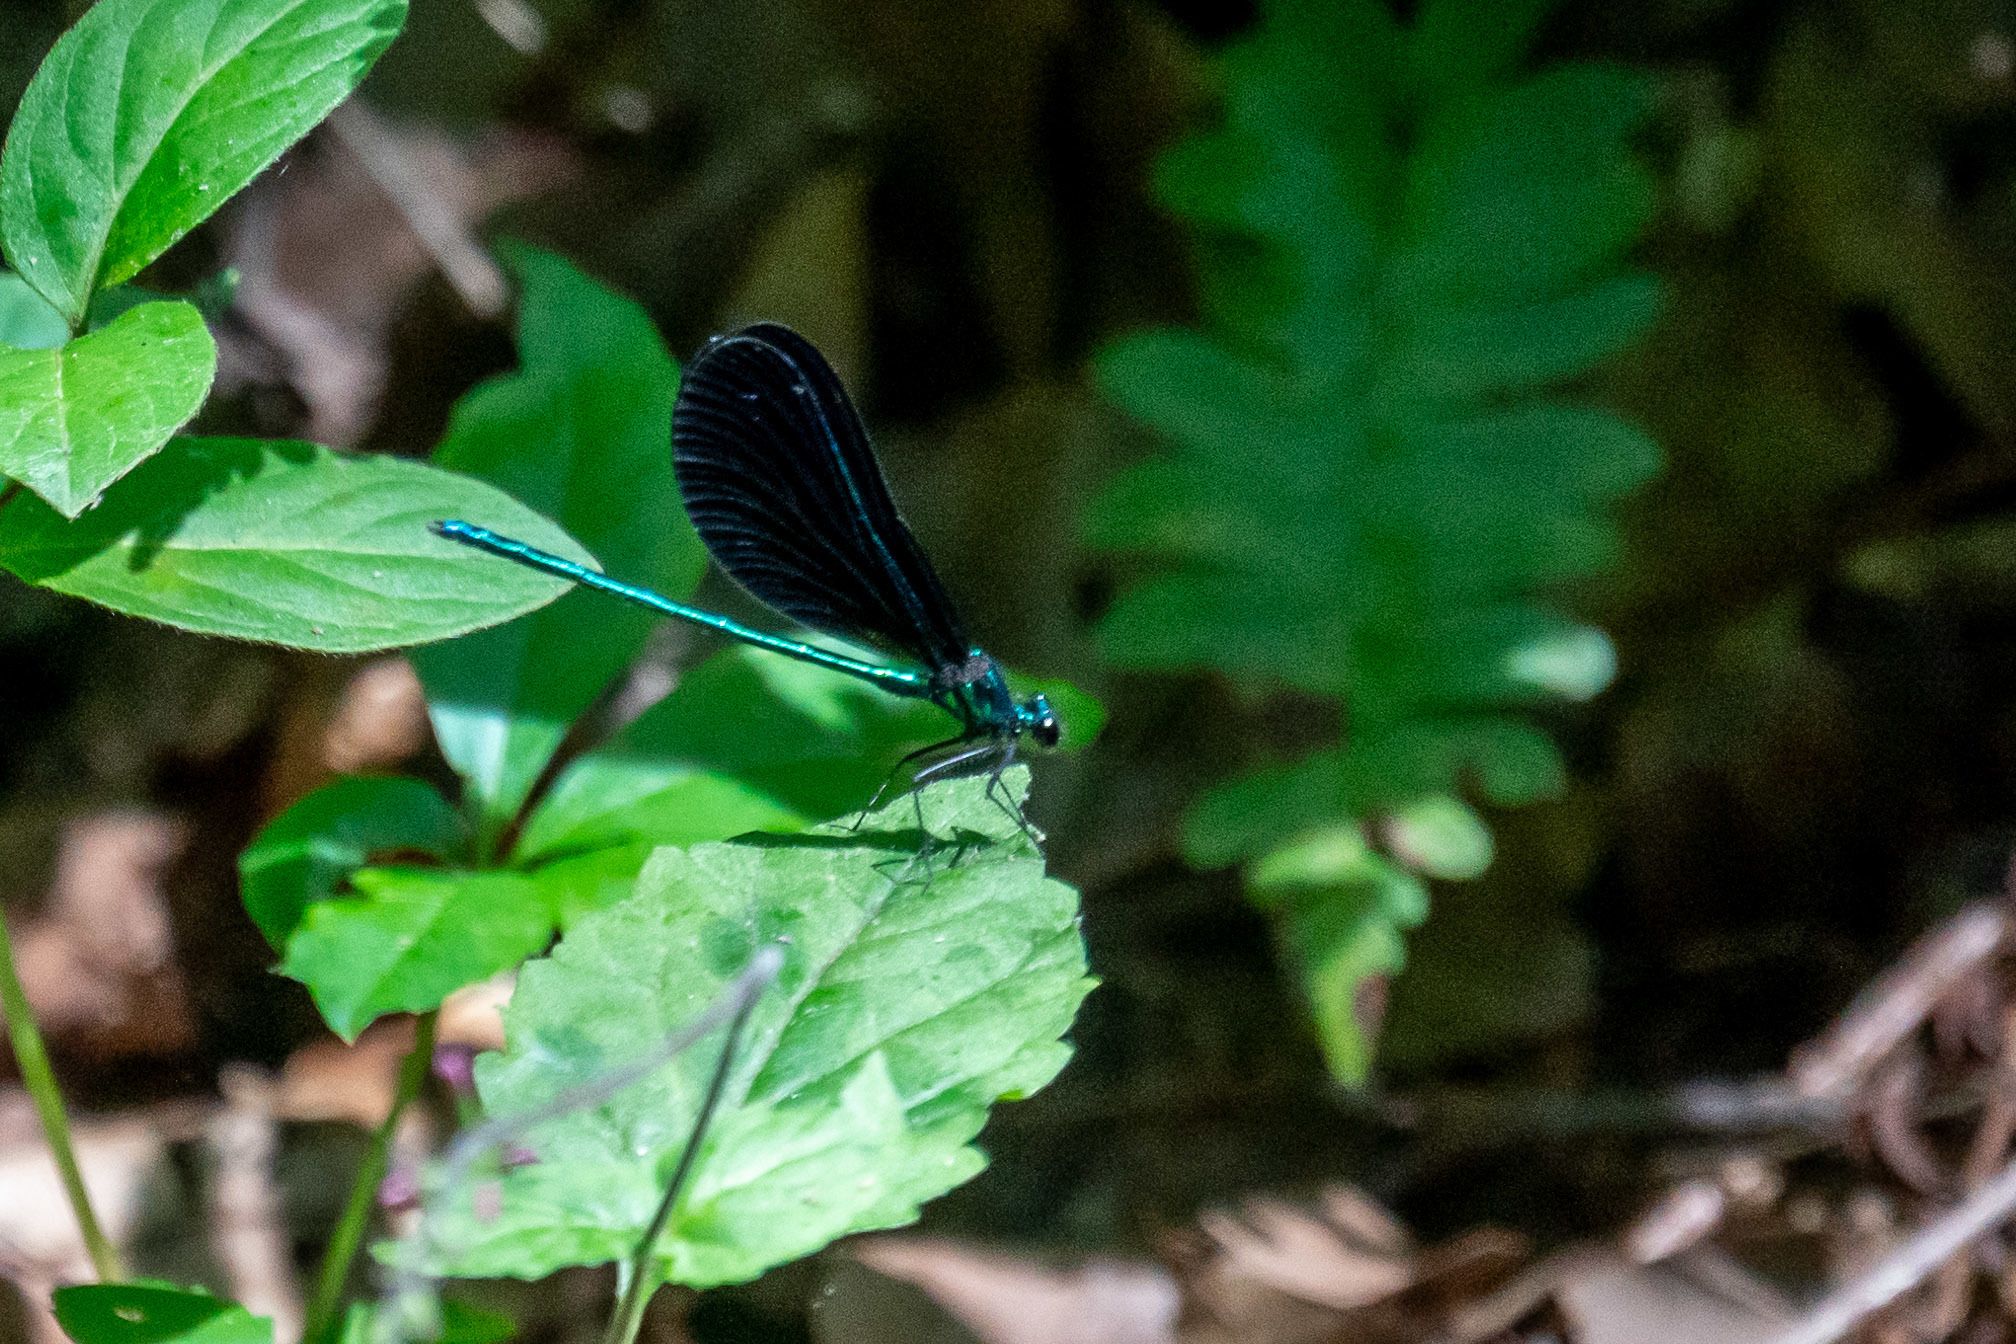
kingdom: Animalia
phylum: Arthropoda
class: Insecta
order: Odonata
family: Calopterygidae
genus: Calopteryx
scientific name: Calopteryx maculata
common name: Ebony jewelwing
